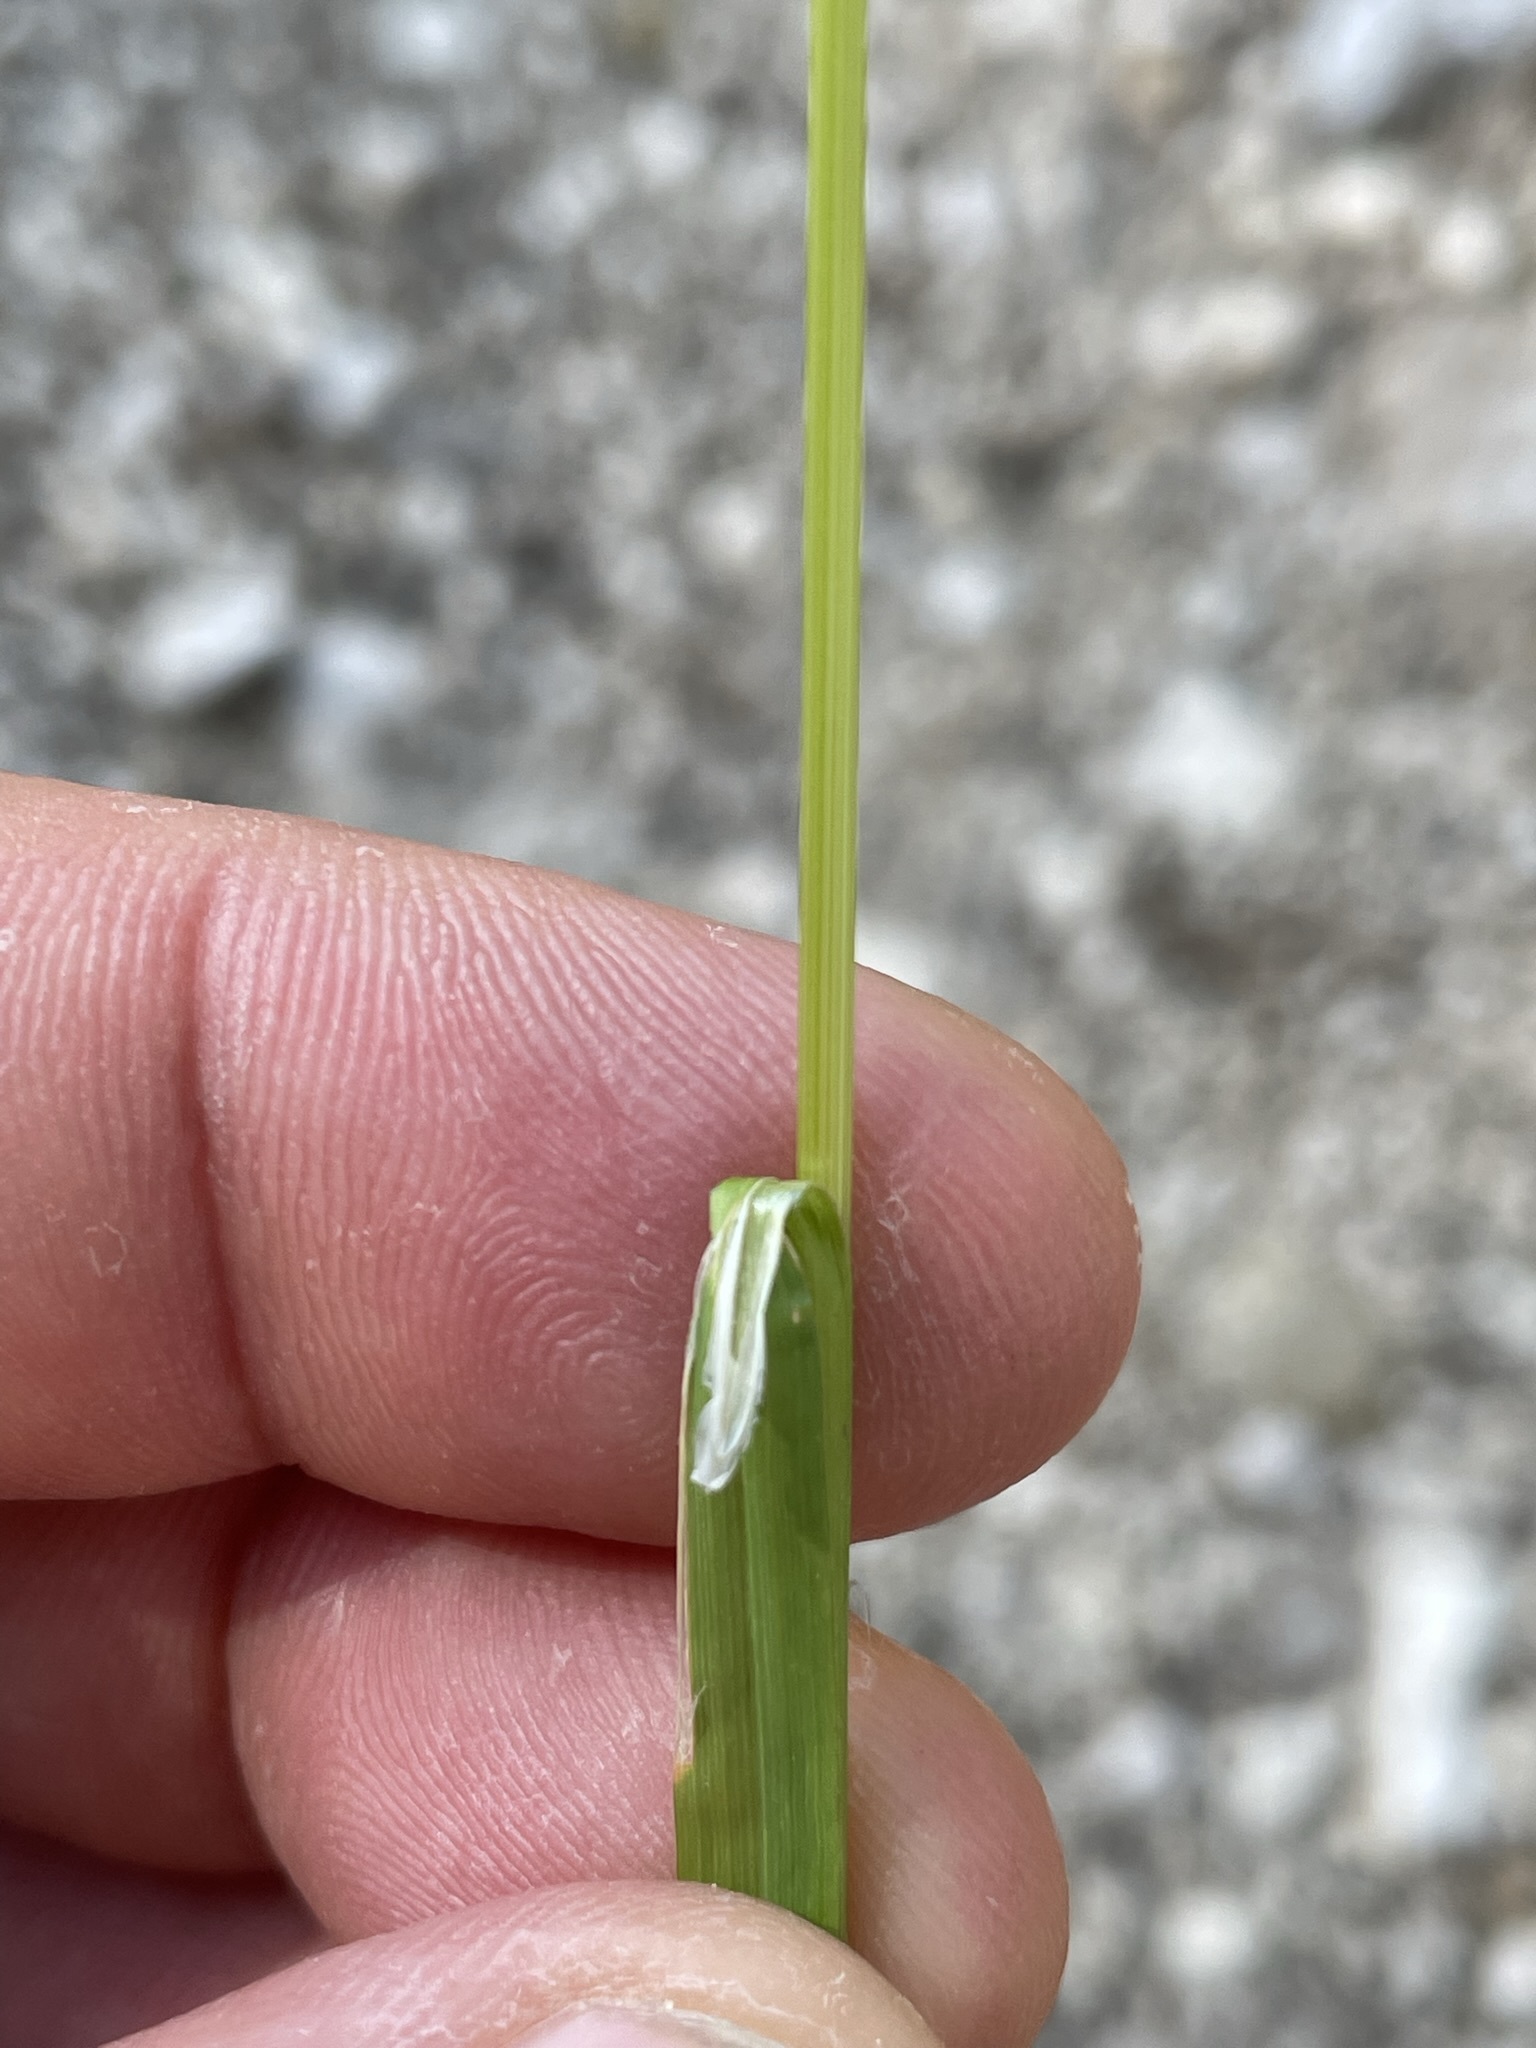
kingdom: Plantae
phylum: Tracheophyta
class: Liliopsida
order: Poales
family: Poaceae
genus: Poa
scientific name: Poa trivialis
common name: Rough bluegrass
